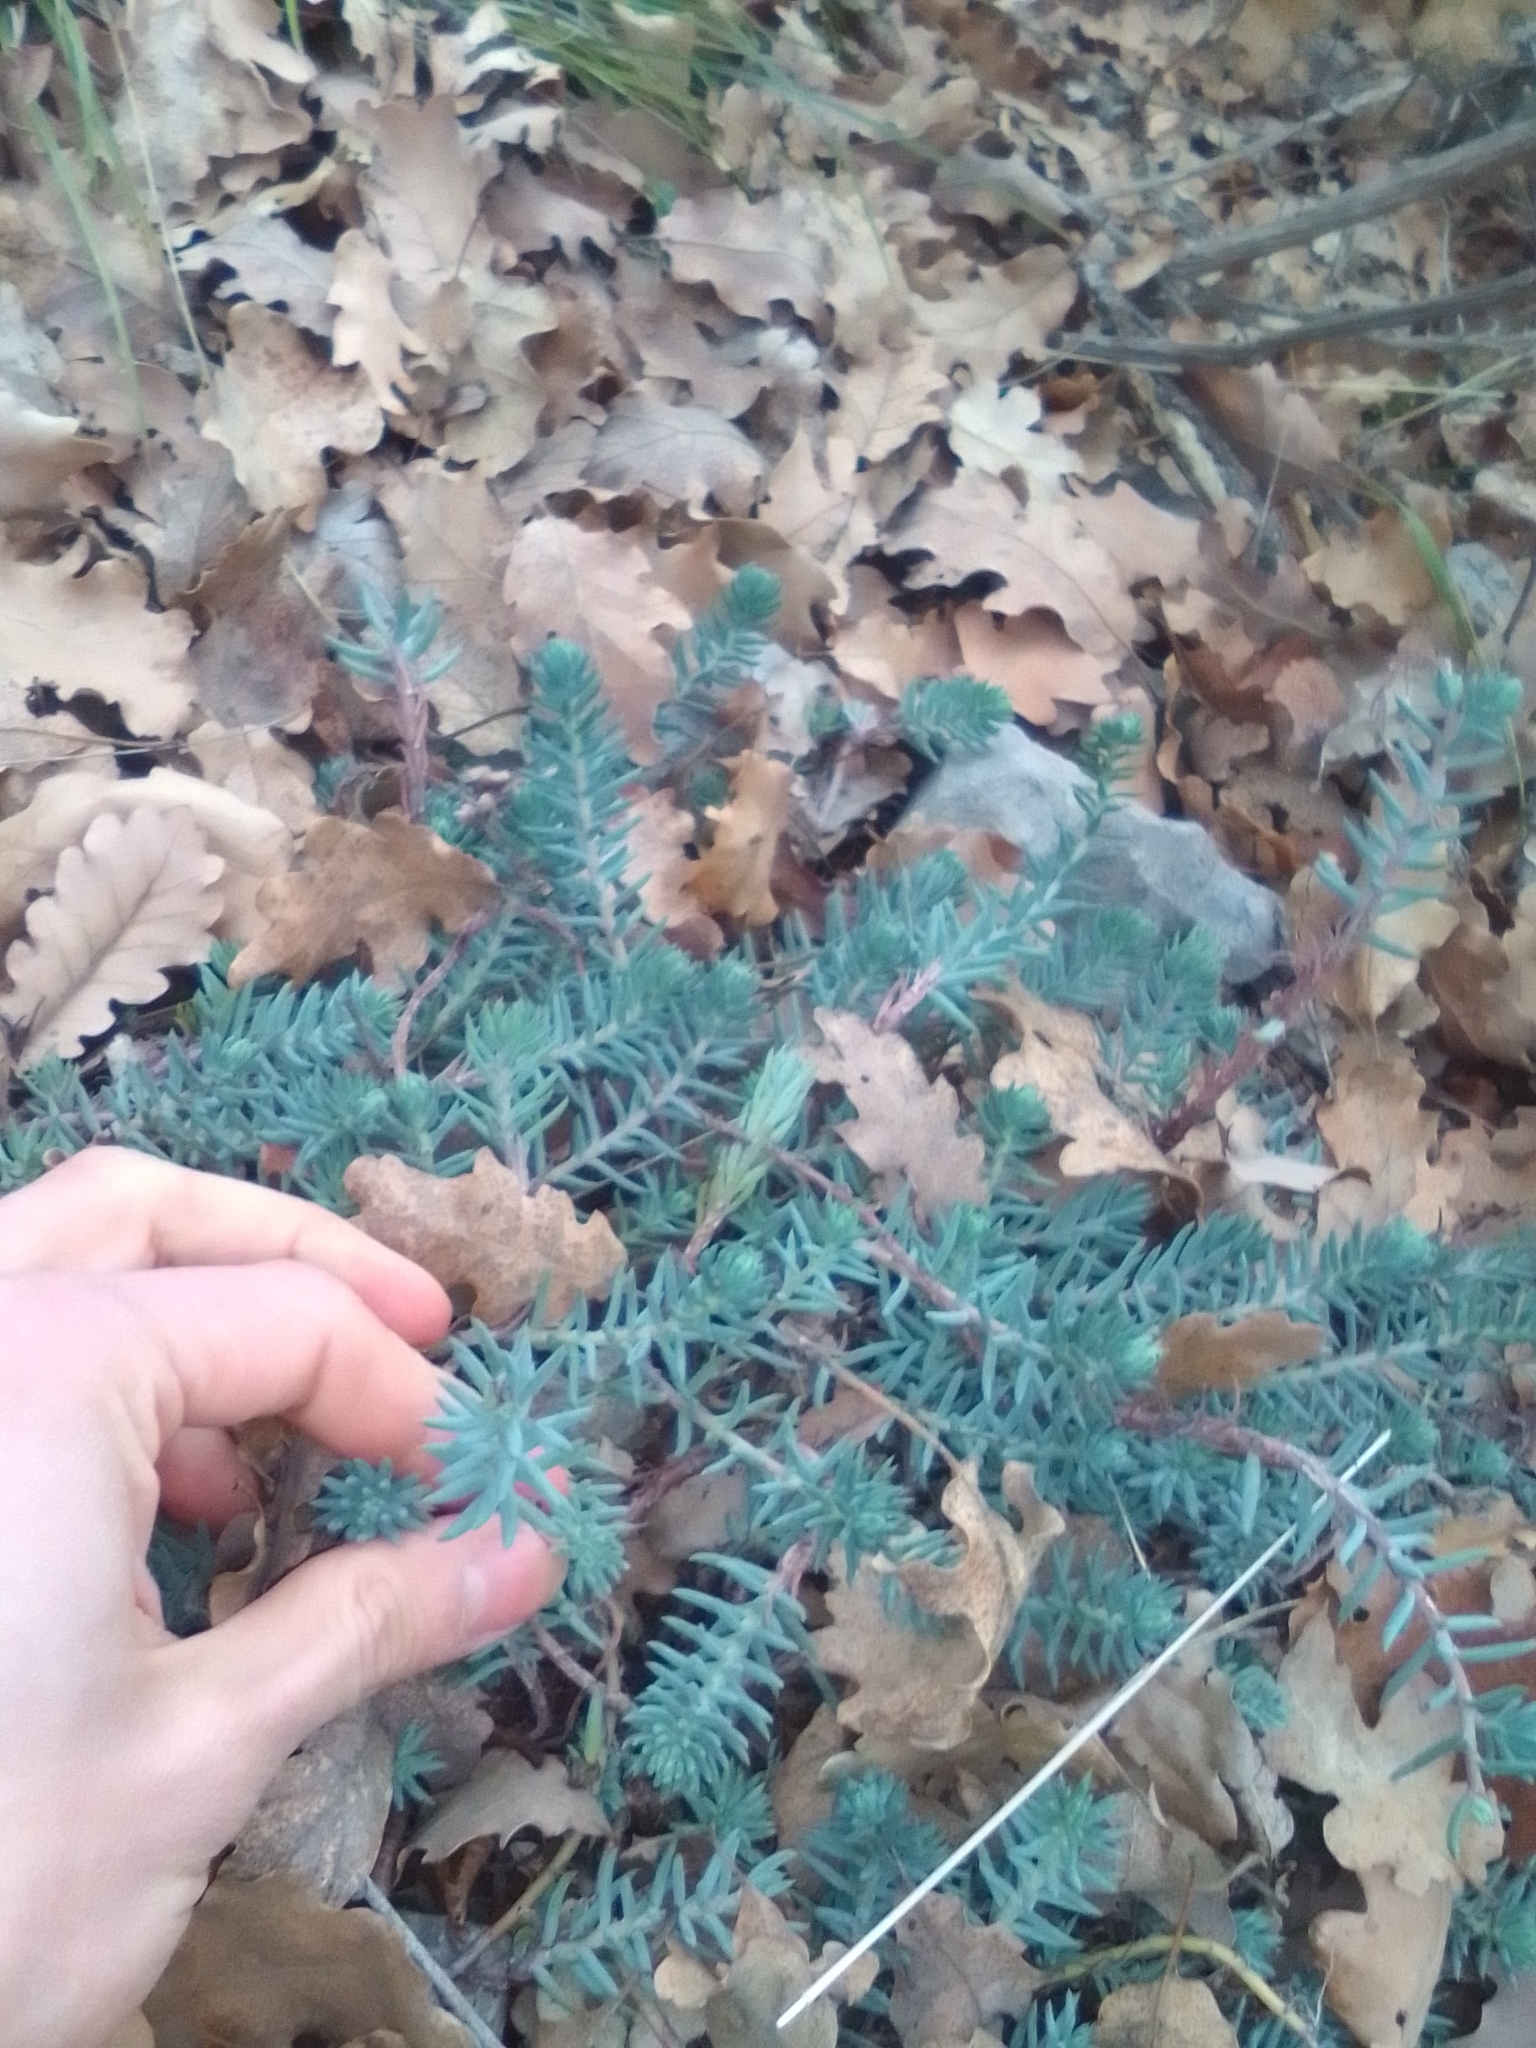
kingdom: Plantae
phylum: Tracheophyta
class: Magnoliopsida
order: Saxifragales
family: Crassulaceae
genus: Petrosedum
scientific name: Petrosedum
